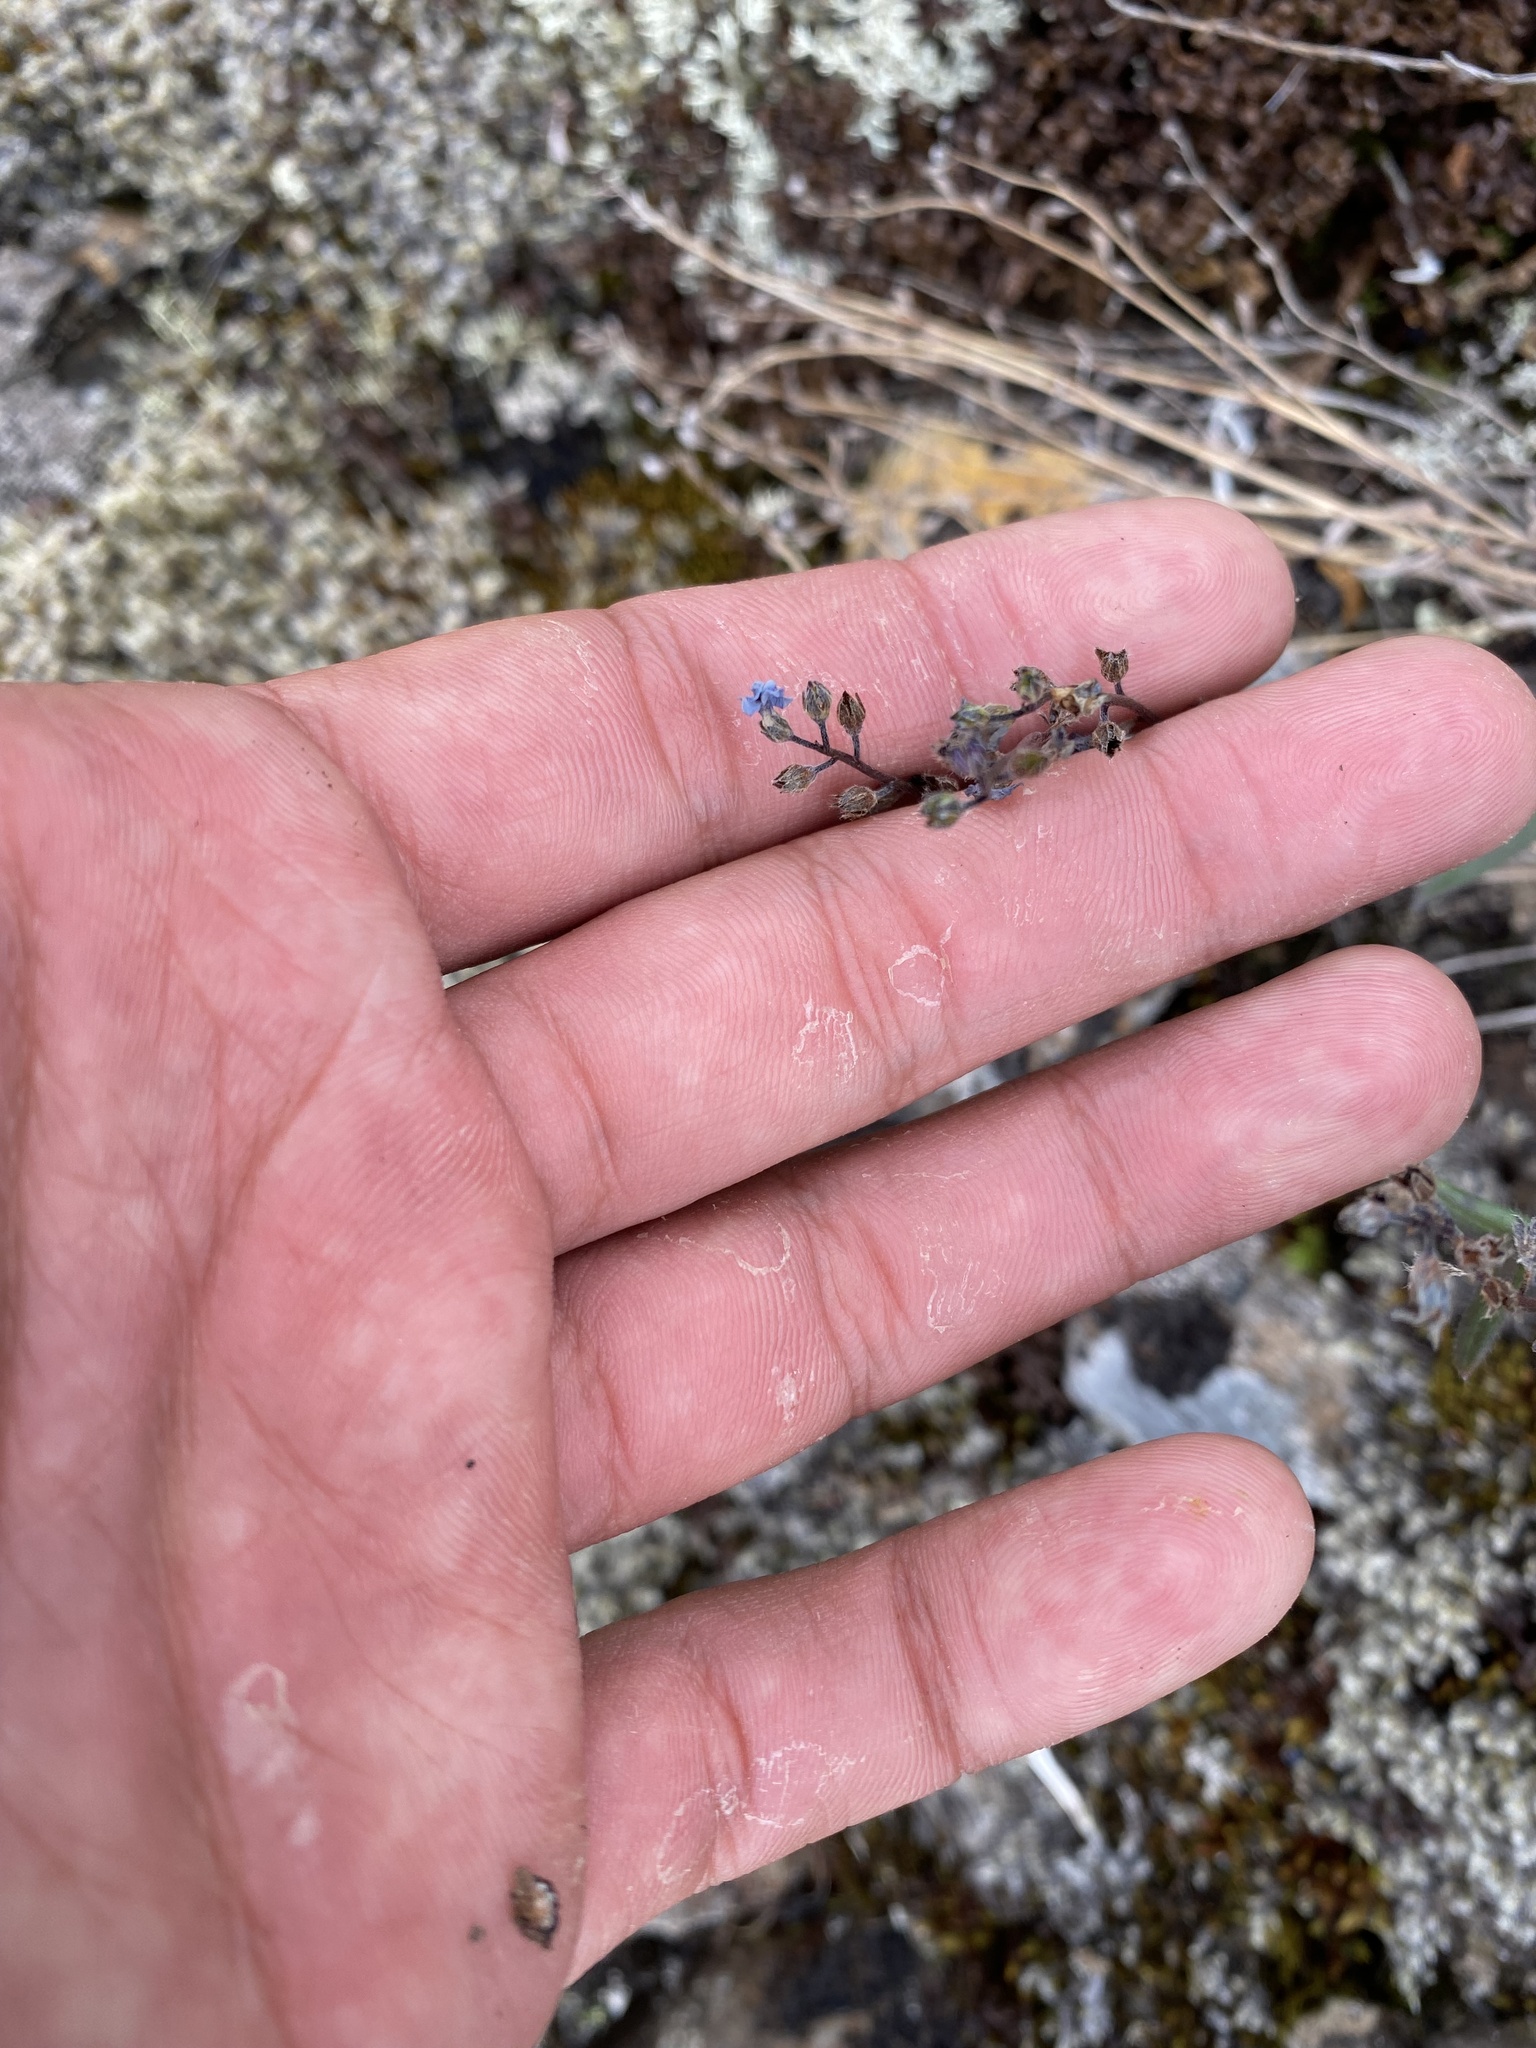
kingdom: Plantae
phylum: Tracheophyta
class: Magnoliopsida
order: Boraginales
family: Boraginaceae
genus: Myosotis
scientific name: Myosotis asiatica
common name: Asian forget-me-not
